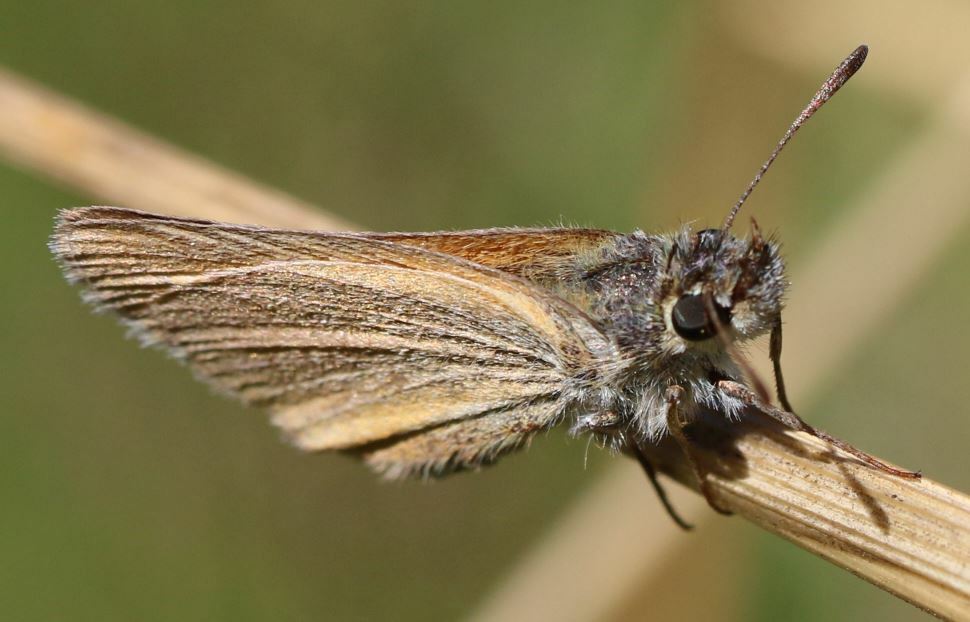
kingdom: Animalia
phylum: Arthropoda
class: Insecta
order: Lepidoptera
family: Hesperiidae
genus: Thymelicus
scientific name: Thymelicus lineola
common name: Essex skipper
